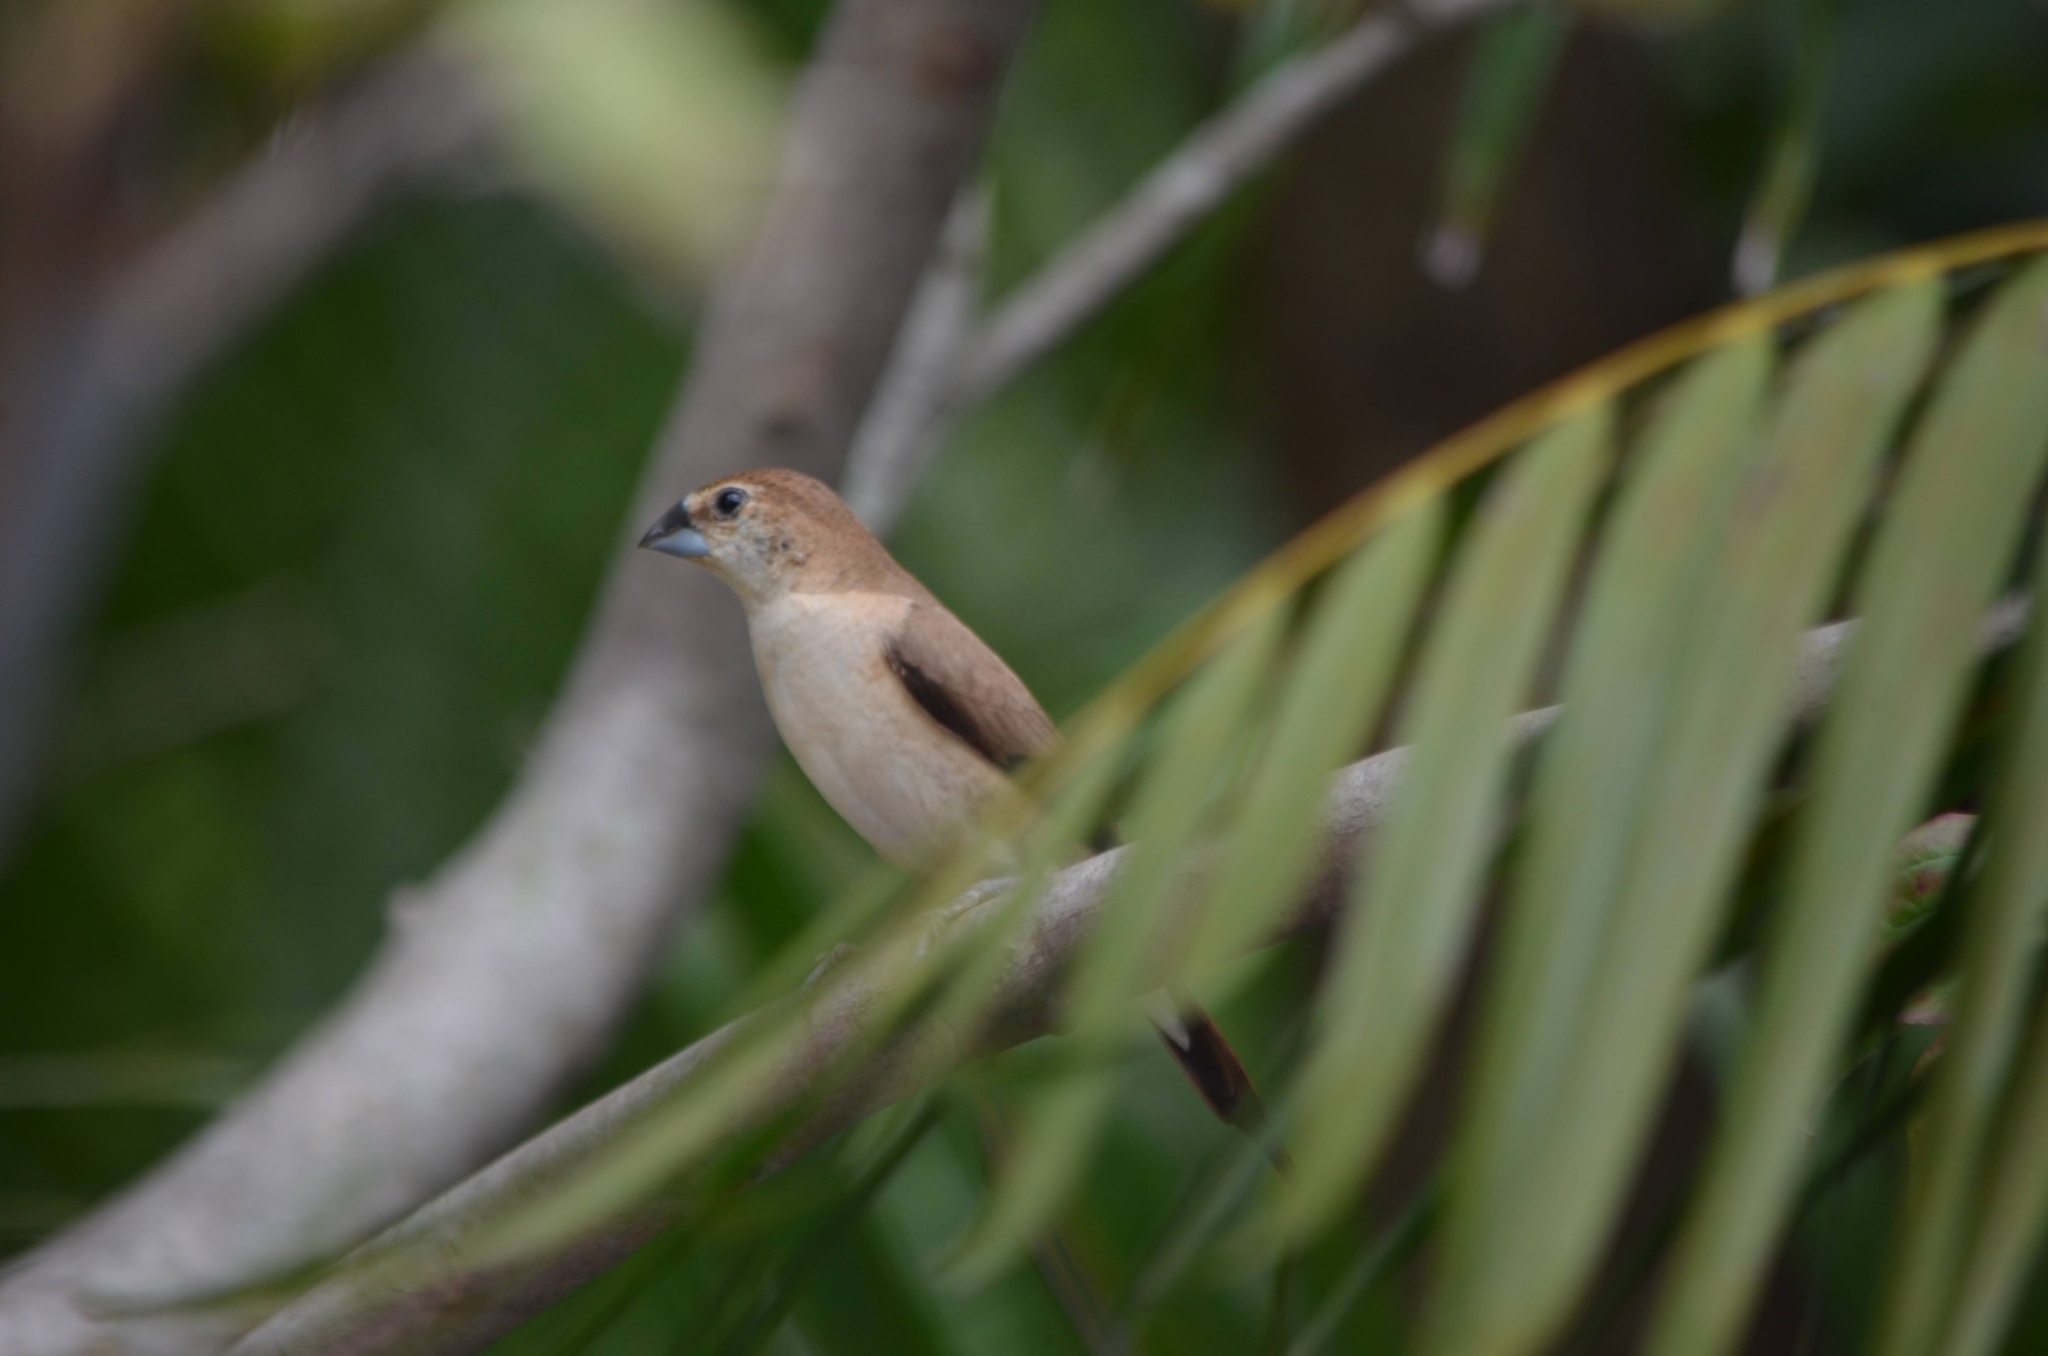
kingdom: Animalia
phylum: Chordata
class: Aves
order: Passeriformes
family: Estrildidae
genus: Euodice
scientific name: Euodice malabarica
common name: Indian silverbill
